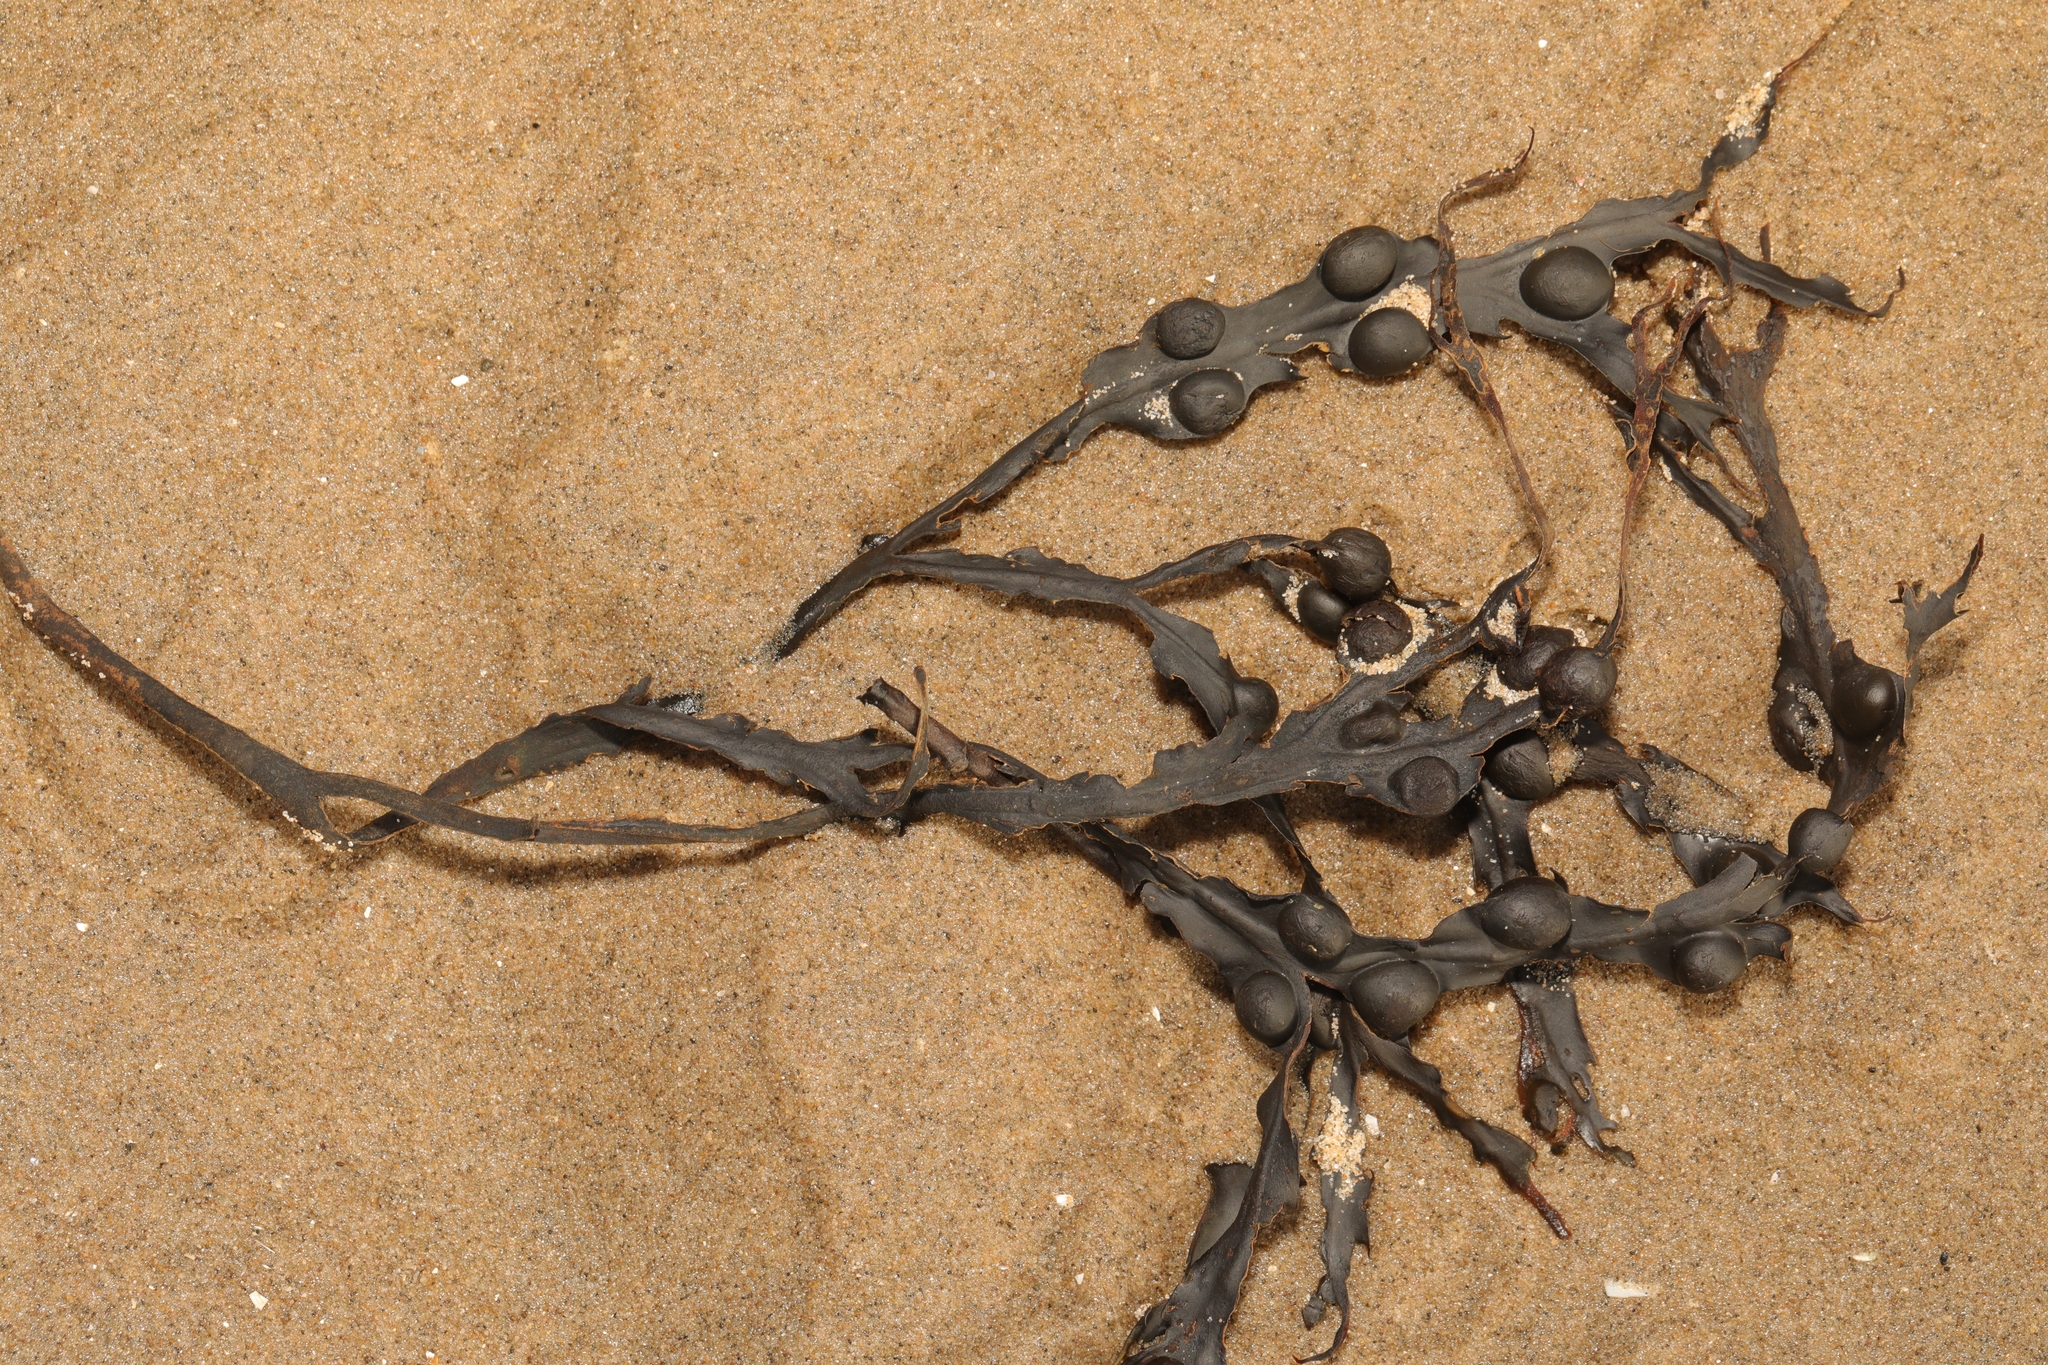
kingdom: Chromista
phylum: Ochrophyta
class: Phaeophyceae
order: Fucales
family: Fucaceae
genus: Fucus
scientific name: Fucus vesiculosus
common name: Bladder wrack
